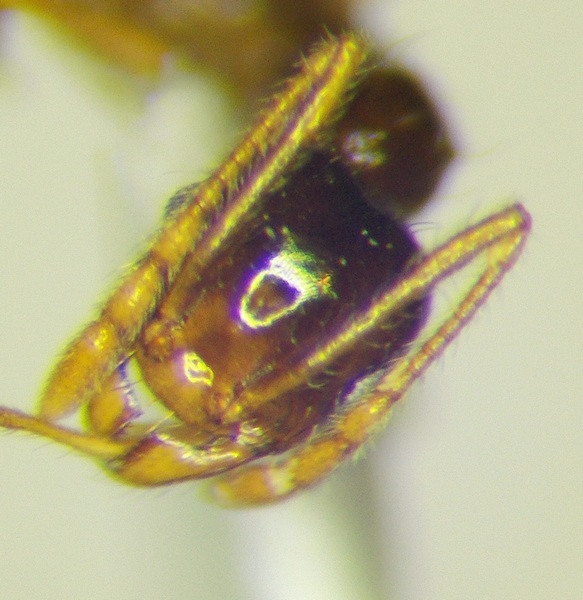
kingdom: Animalia
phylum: Arthropoda
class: Insecta
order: Hymenoptera
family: Formicidae
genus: Pheidole
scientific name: Pheidole pallidula
